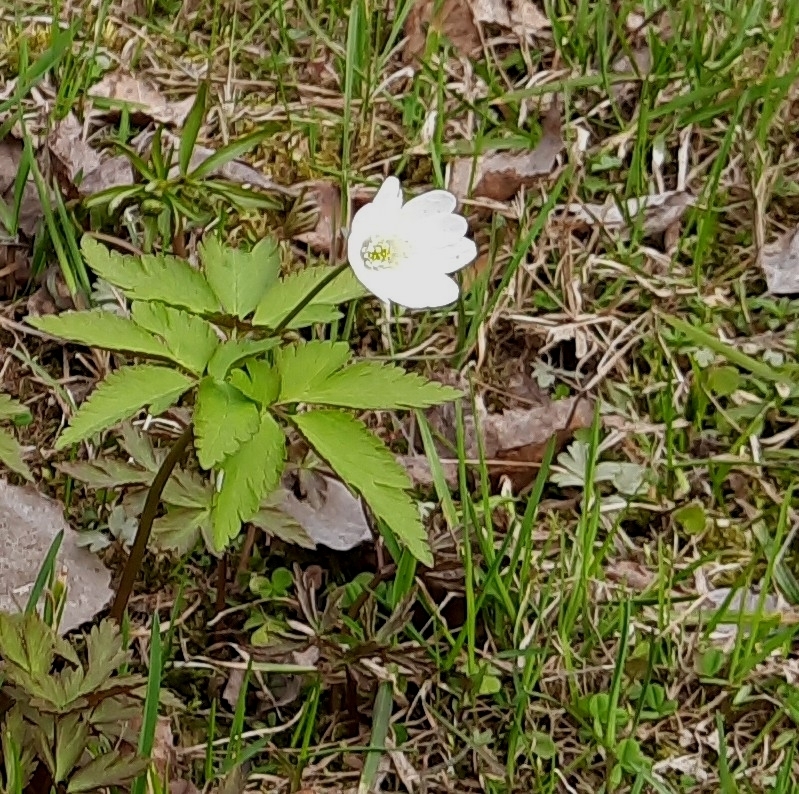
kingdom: Plantae
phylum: Tracheophyta
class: Magnoliopsida
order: Ranunculales
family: Ranunculaceae
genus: Anemone
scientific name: Anemone altaica
